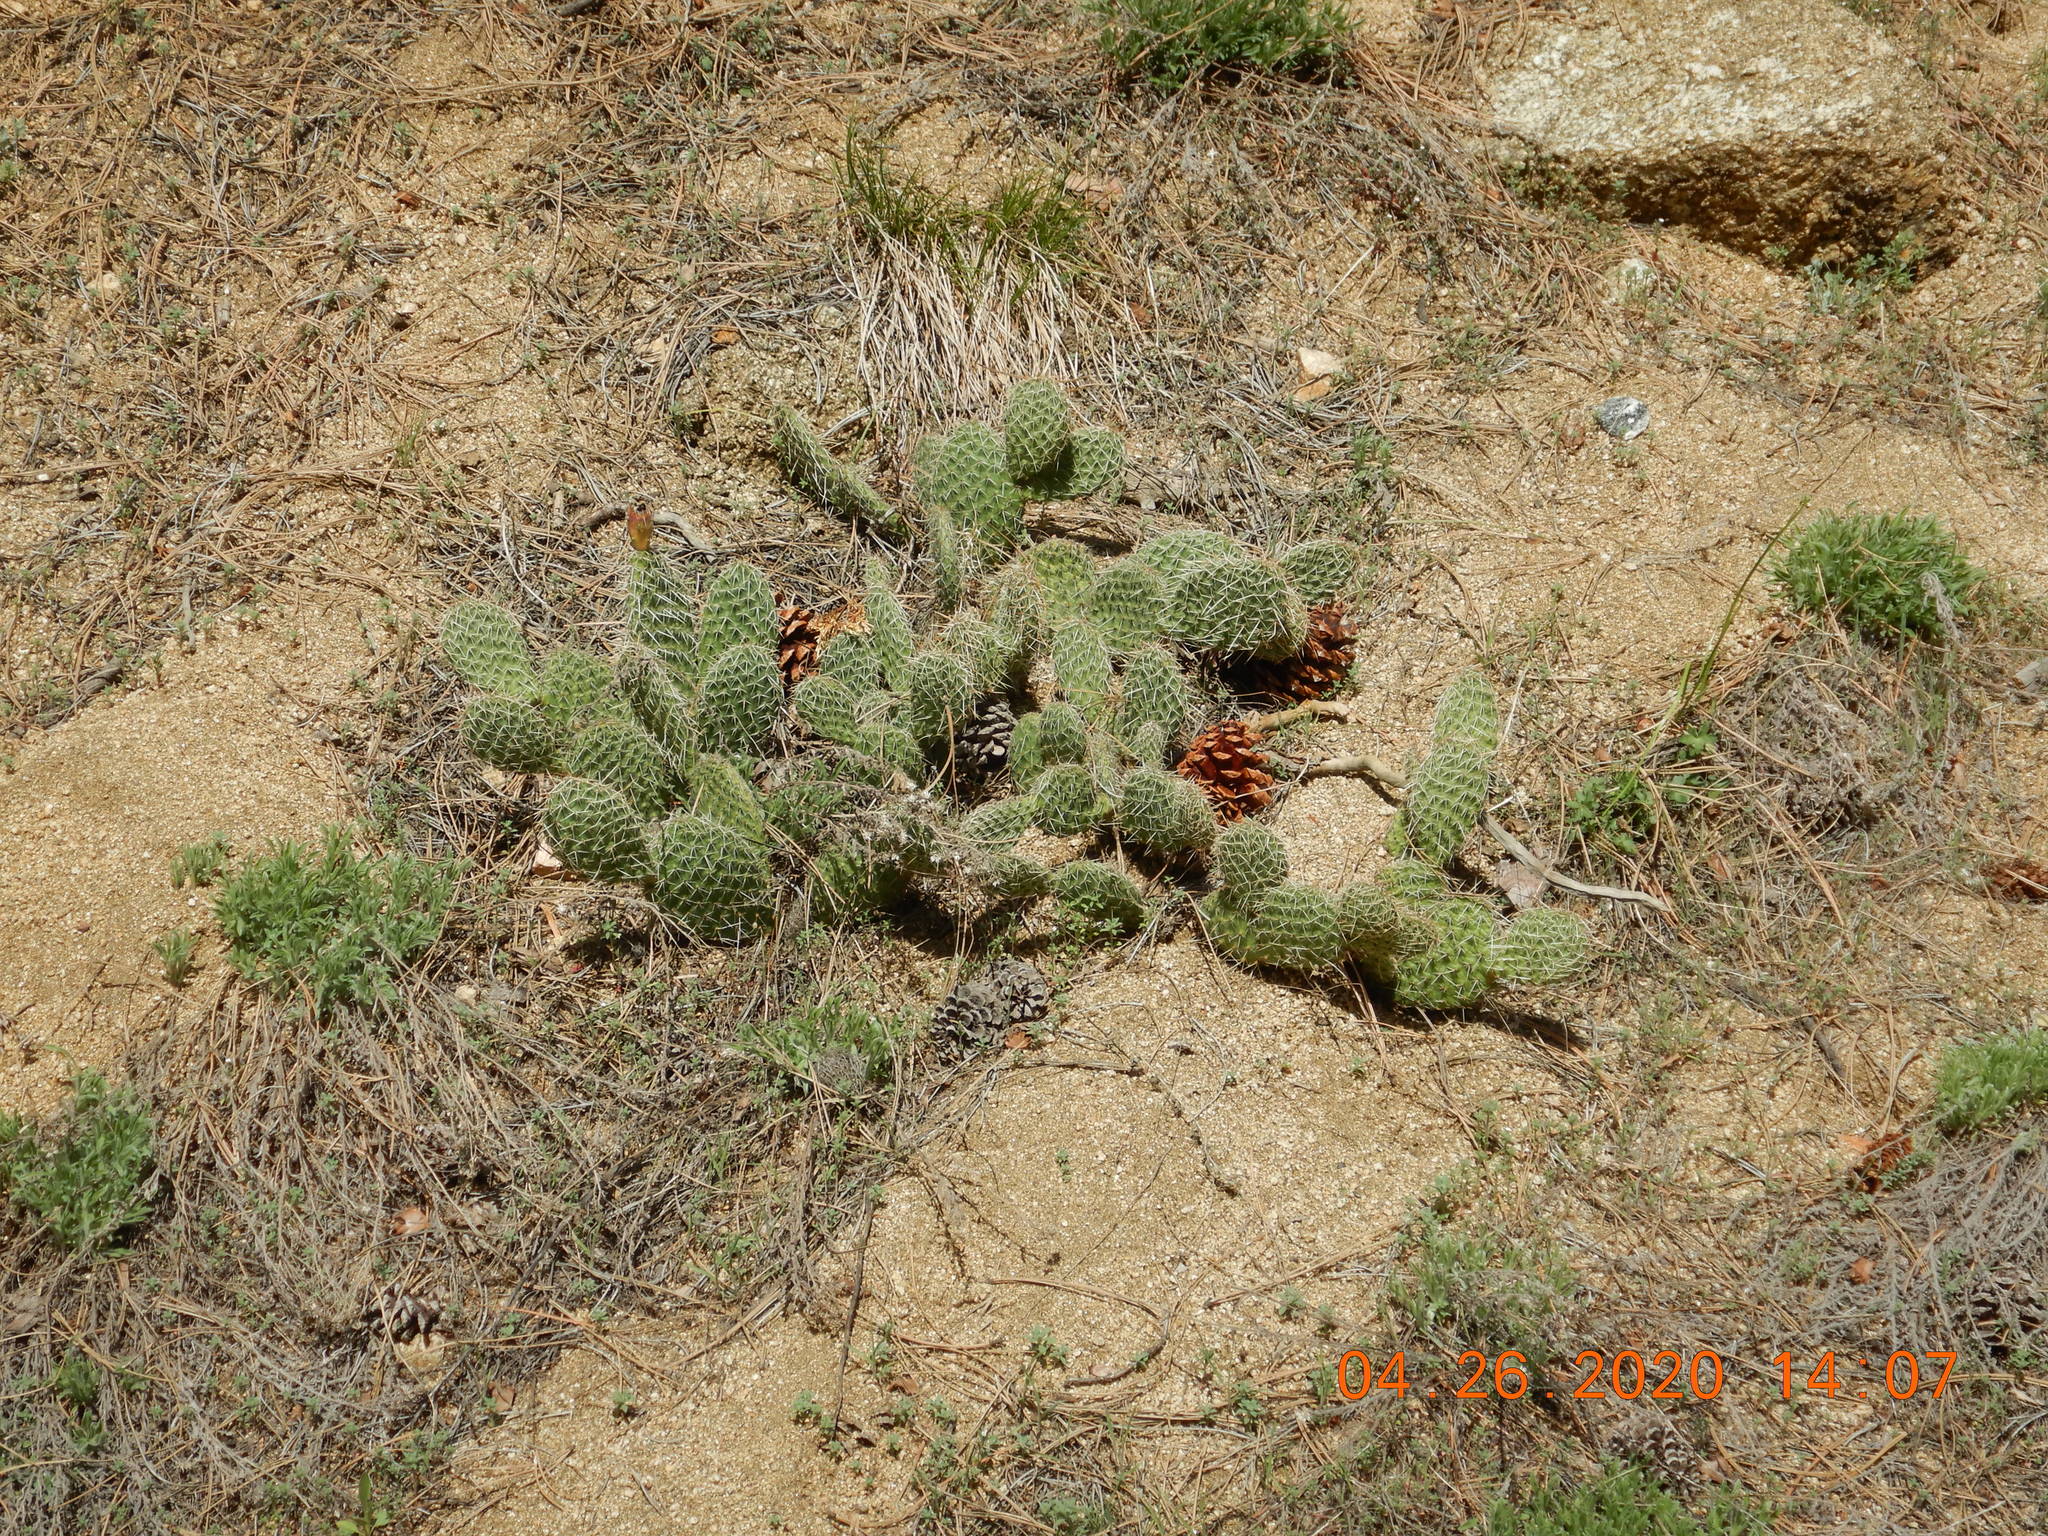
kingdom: Plantae
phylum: Tracheophyta
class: Magnoliopsida
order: Caryophyllales
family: Cactaceae
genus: Opuntia
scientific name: Opuntia polyacantha
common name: Plains prickly-pear
